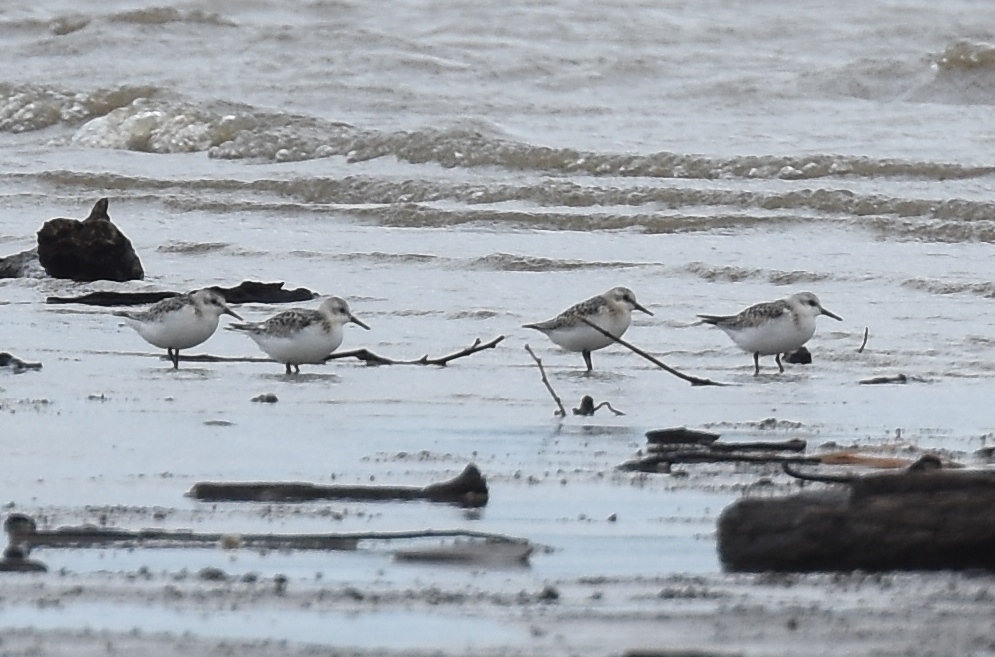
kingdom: Animalia
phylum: Chordata
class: Aves
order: Charadriiformes
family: Scolopacidae
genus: Calidris
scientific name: Calidris alba
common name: Sanderling
